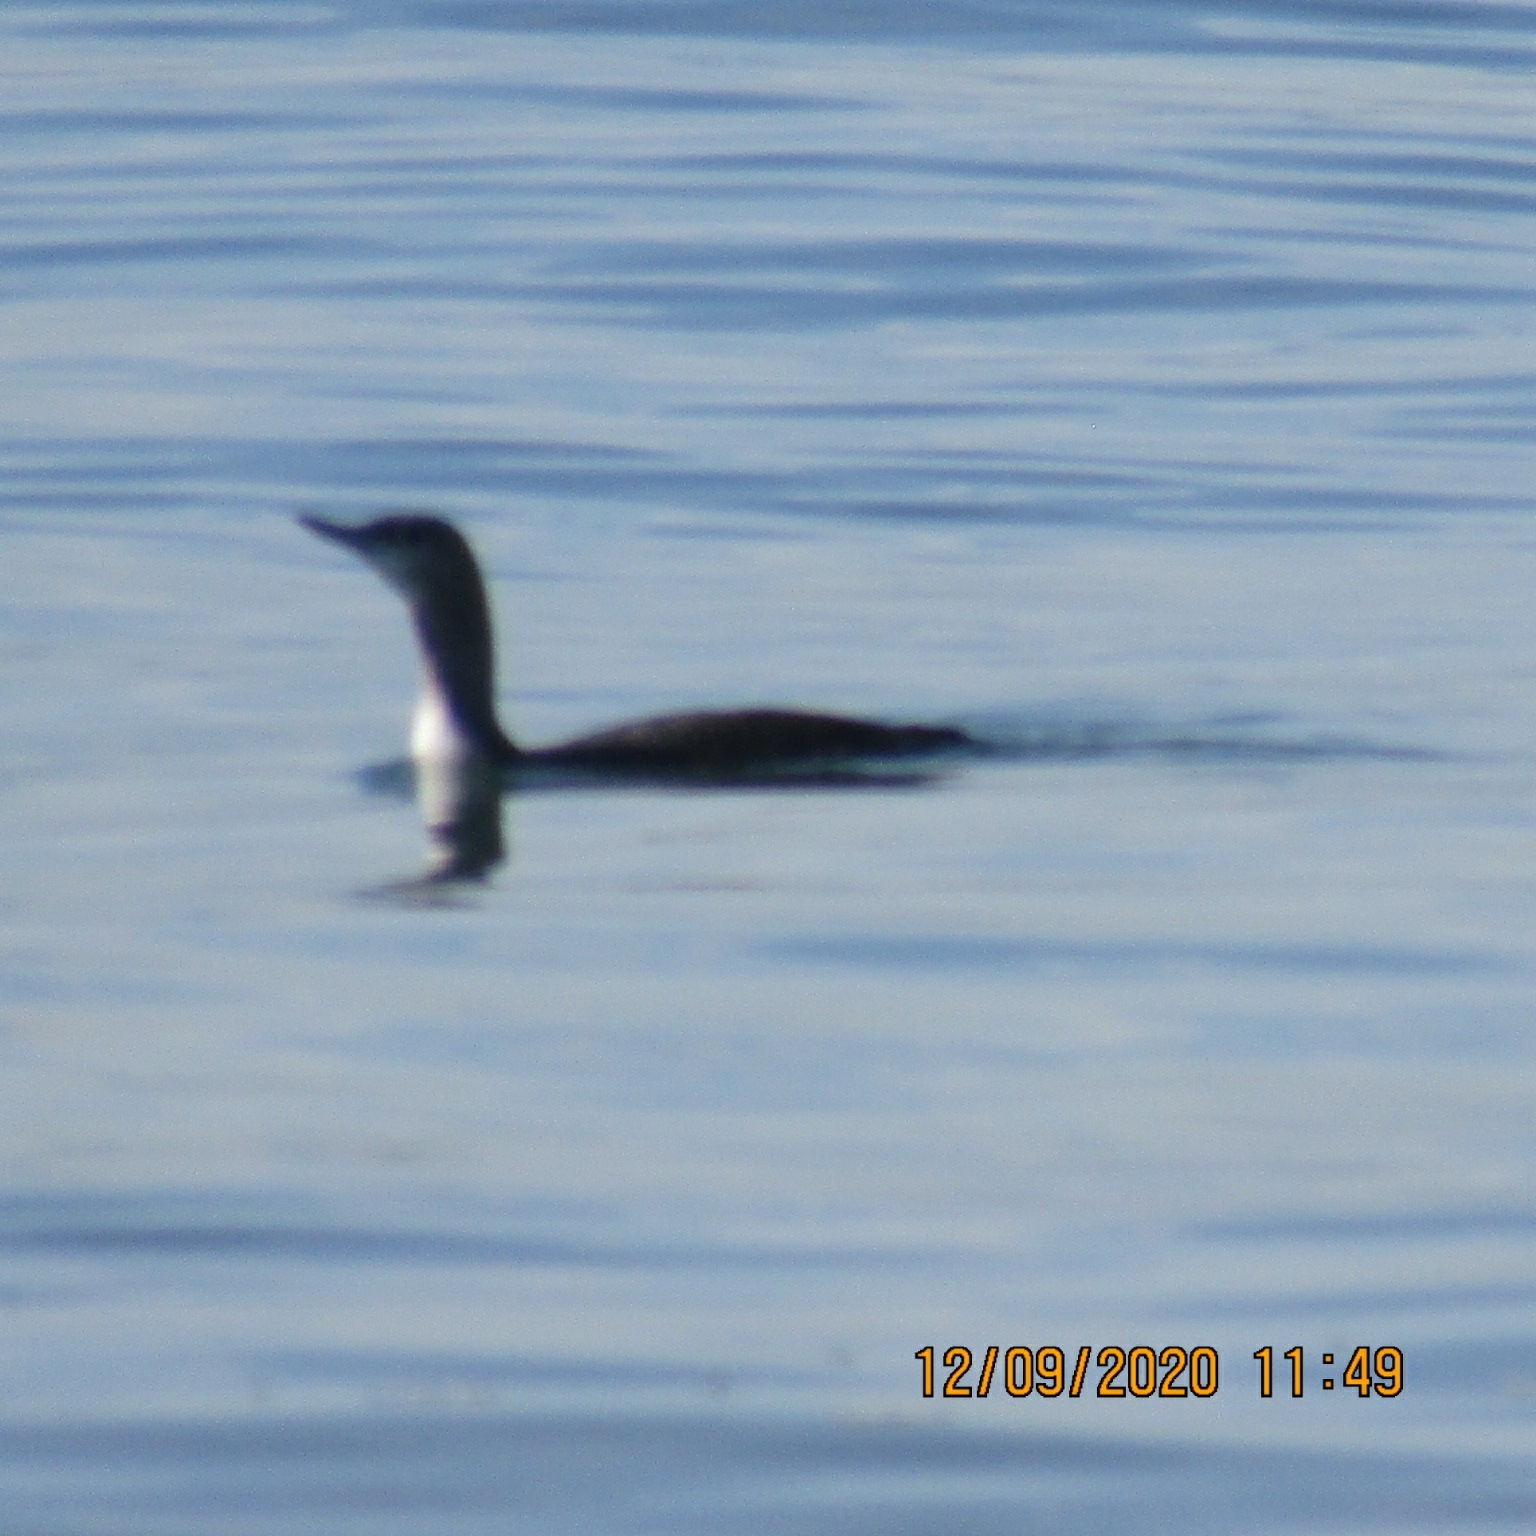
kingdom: Animalia
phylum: Chordata
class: Aves
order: Gaviiformes
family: Gaviidae
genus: Gavia
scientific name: Gavia stellata
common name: Red-throated loon
